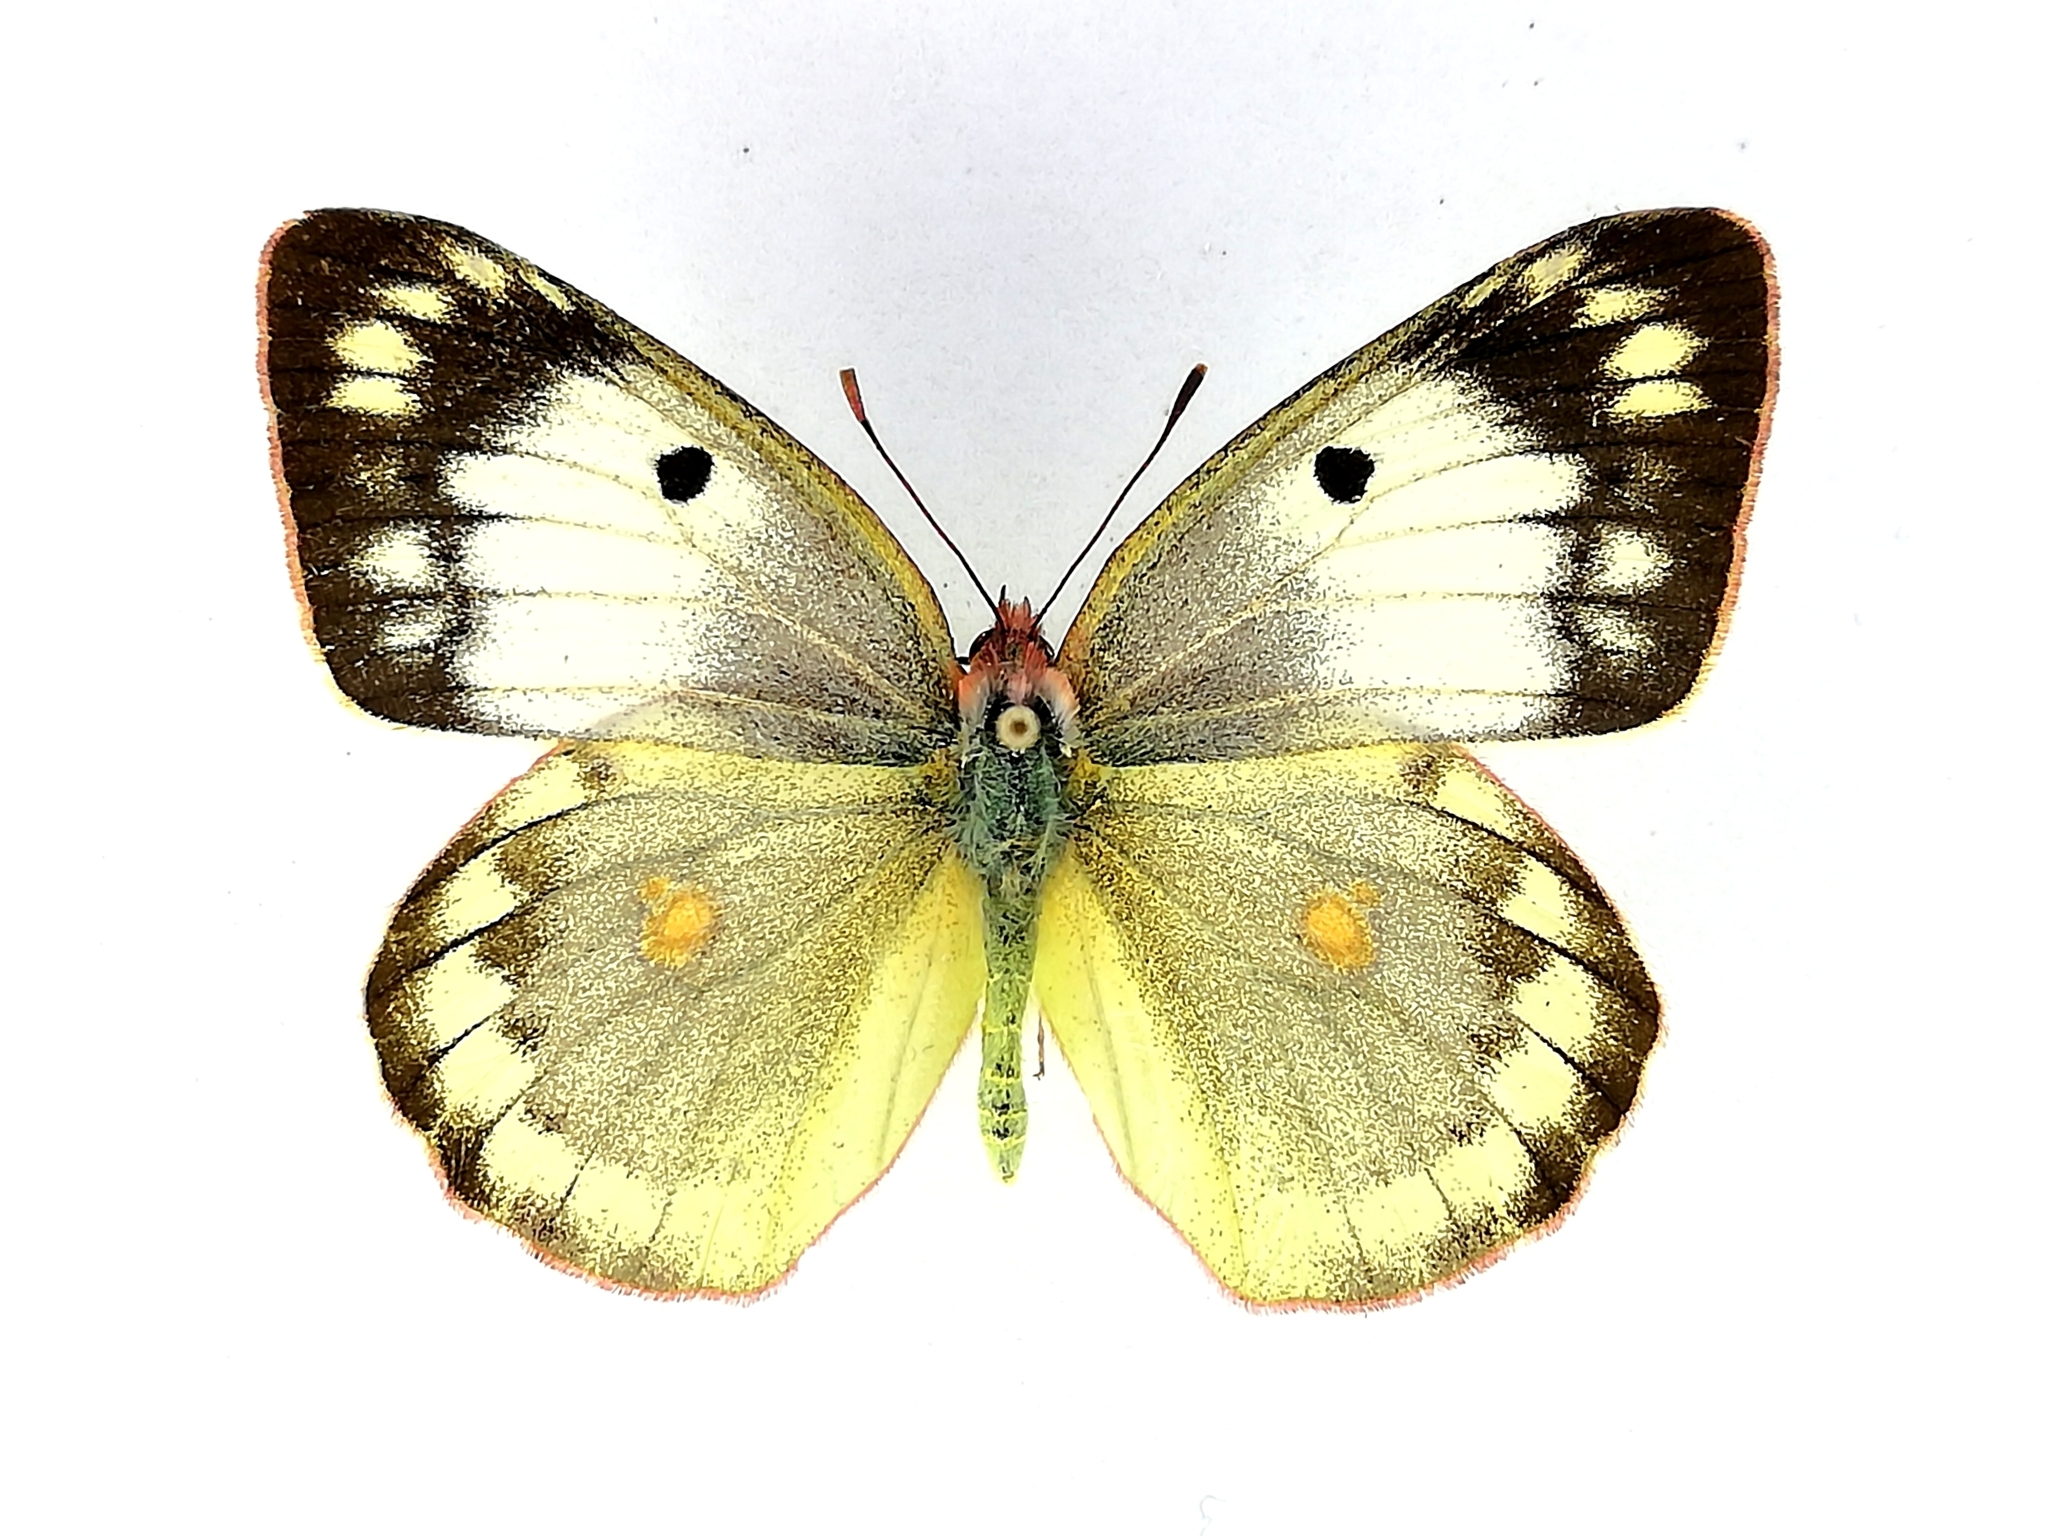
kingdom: Animalia
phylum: Arthropoda
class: Insecta
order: Lepidoptera
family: Pieridae
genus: Colias
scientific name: Colias myrmidone
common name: Danube clouded yellow
